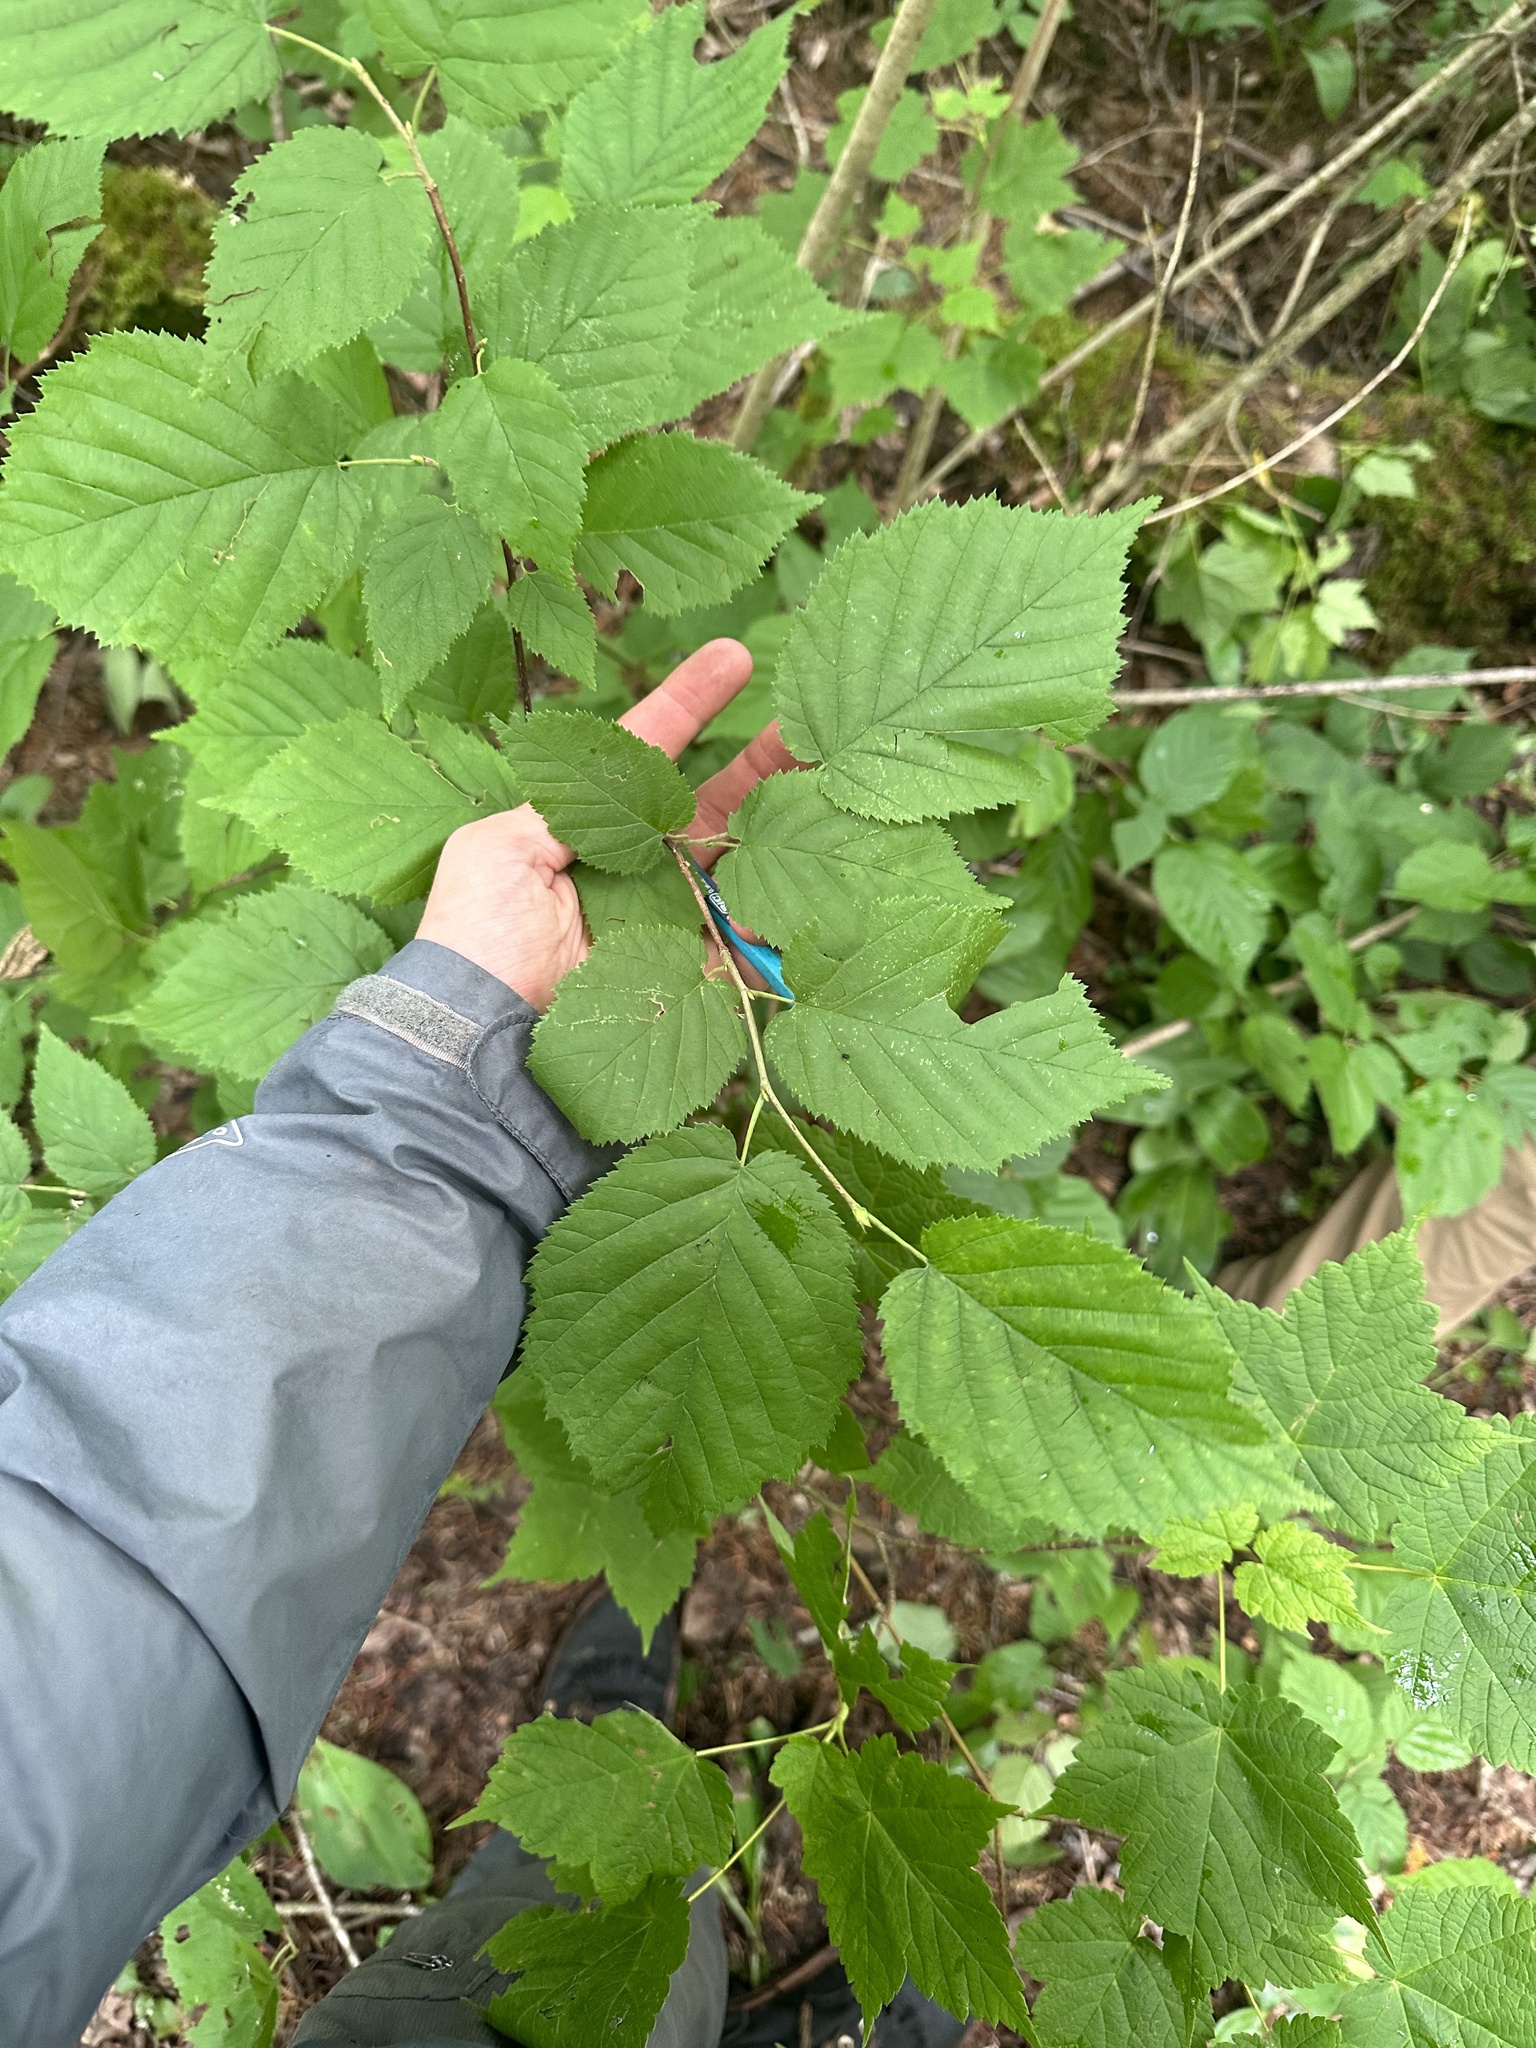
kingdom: Plantae
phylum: Tracheophyta
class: Magnoliopsida
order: Fagales
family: Betulaceae
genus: Corylus
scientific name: Corylus cornuta
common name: Beaked hazel
